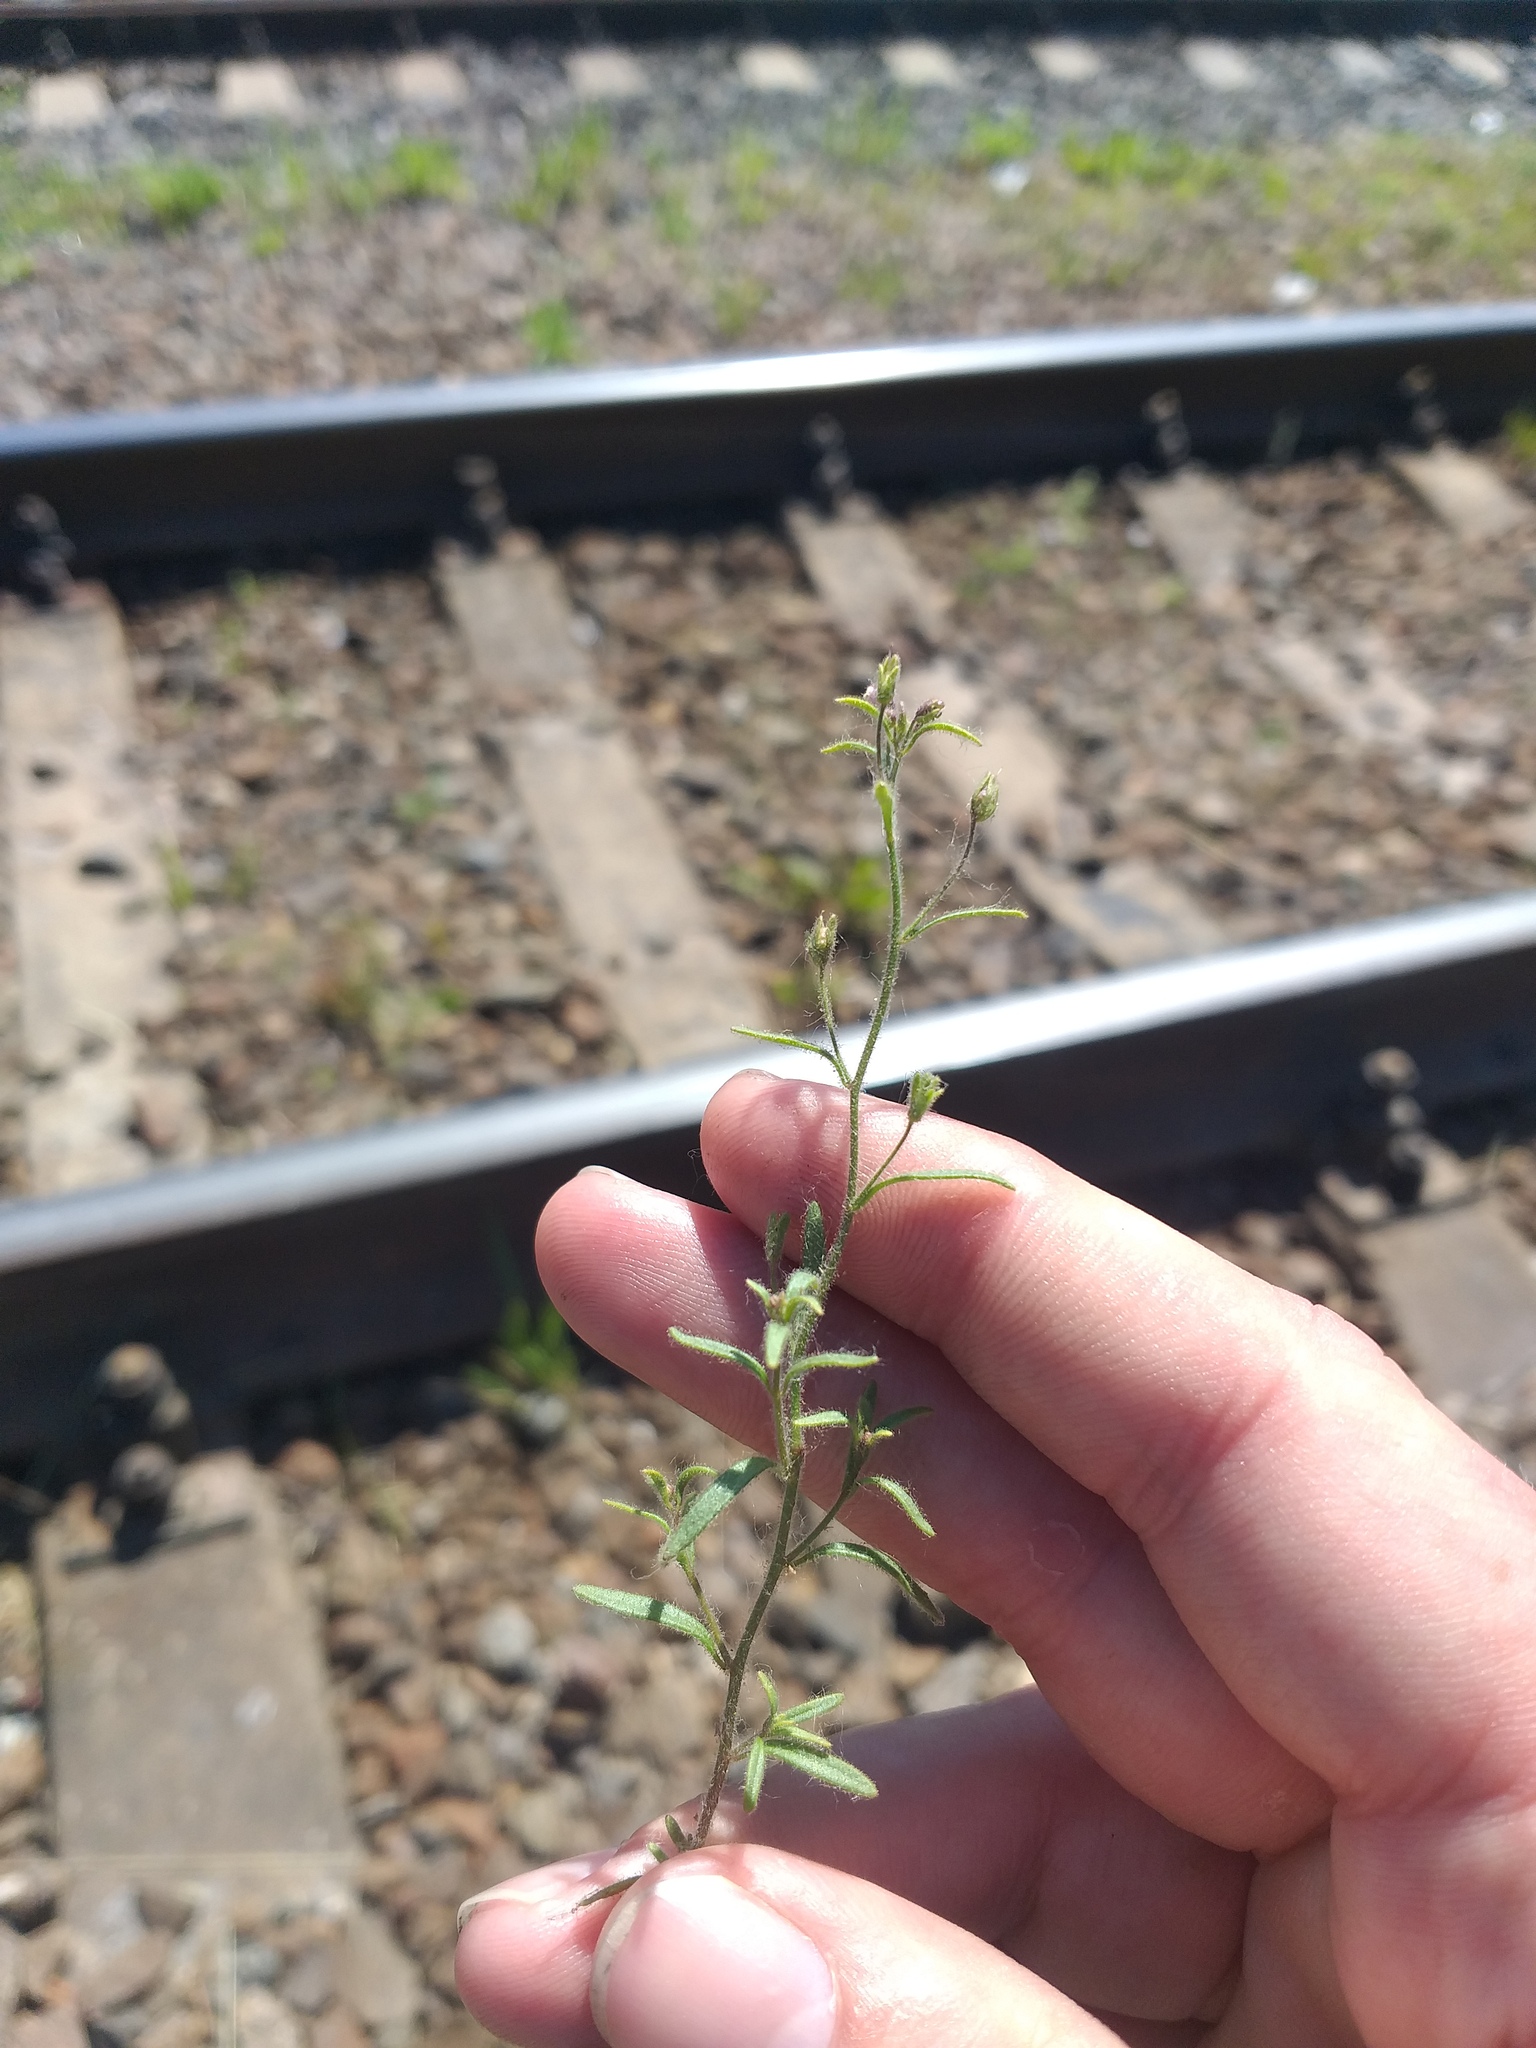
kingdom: Plantae
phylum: Tracheophyta
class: Magnoliopsida
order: Lamiales
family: Plantaginaceae
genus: Chaenorhinum
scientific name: Chaenorhinum minus
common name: Dwarf snapdragon
